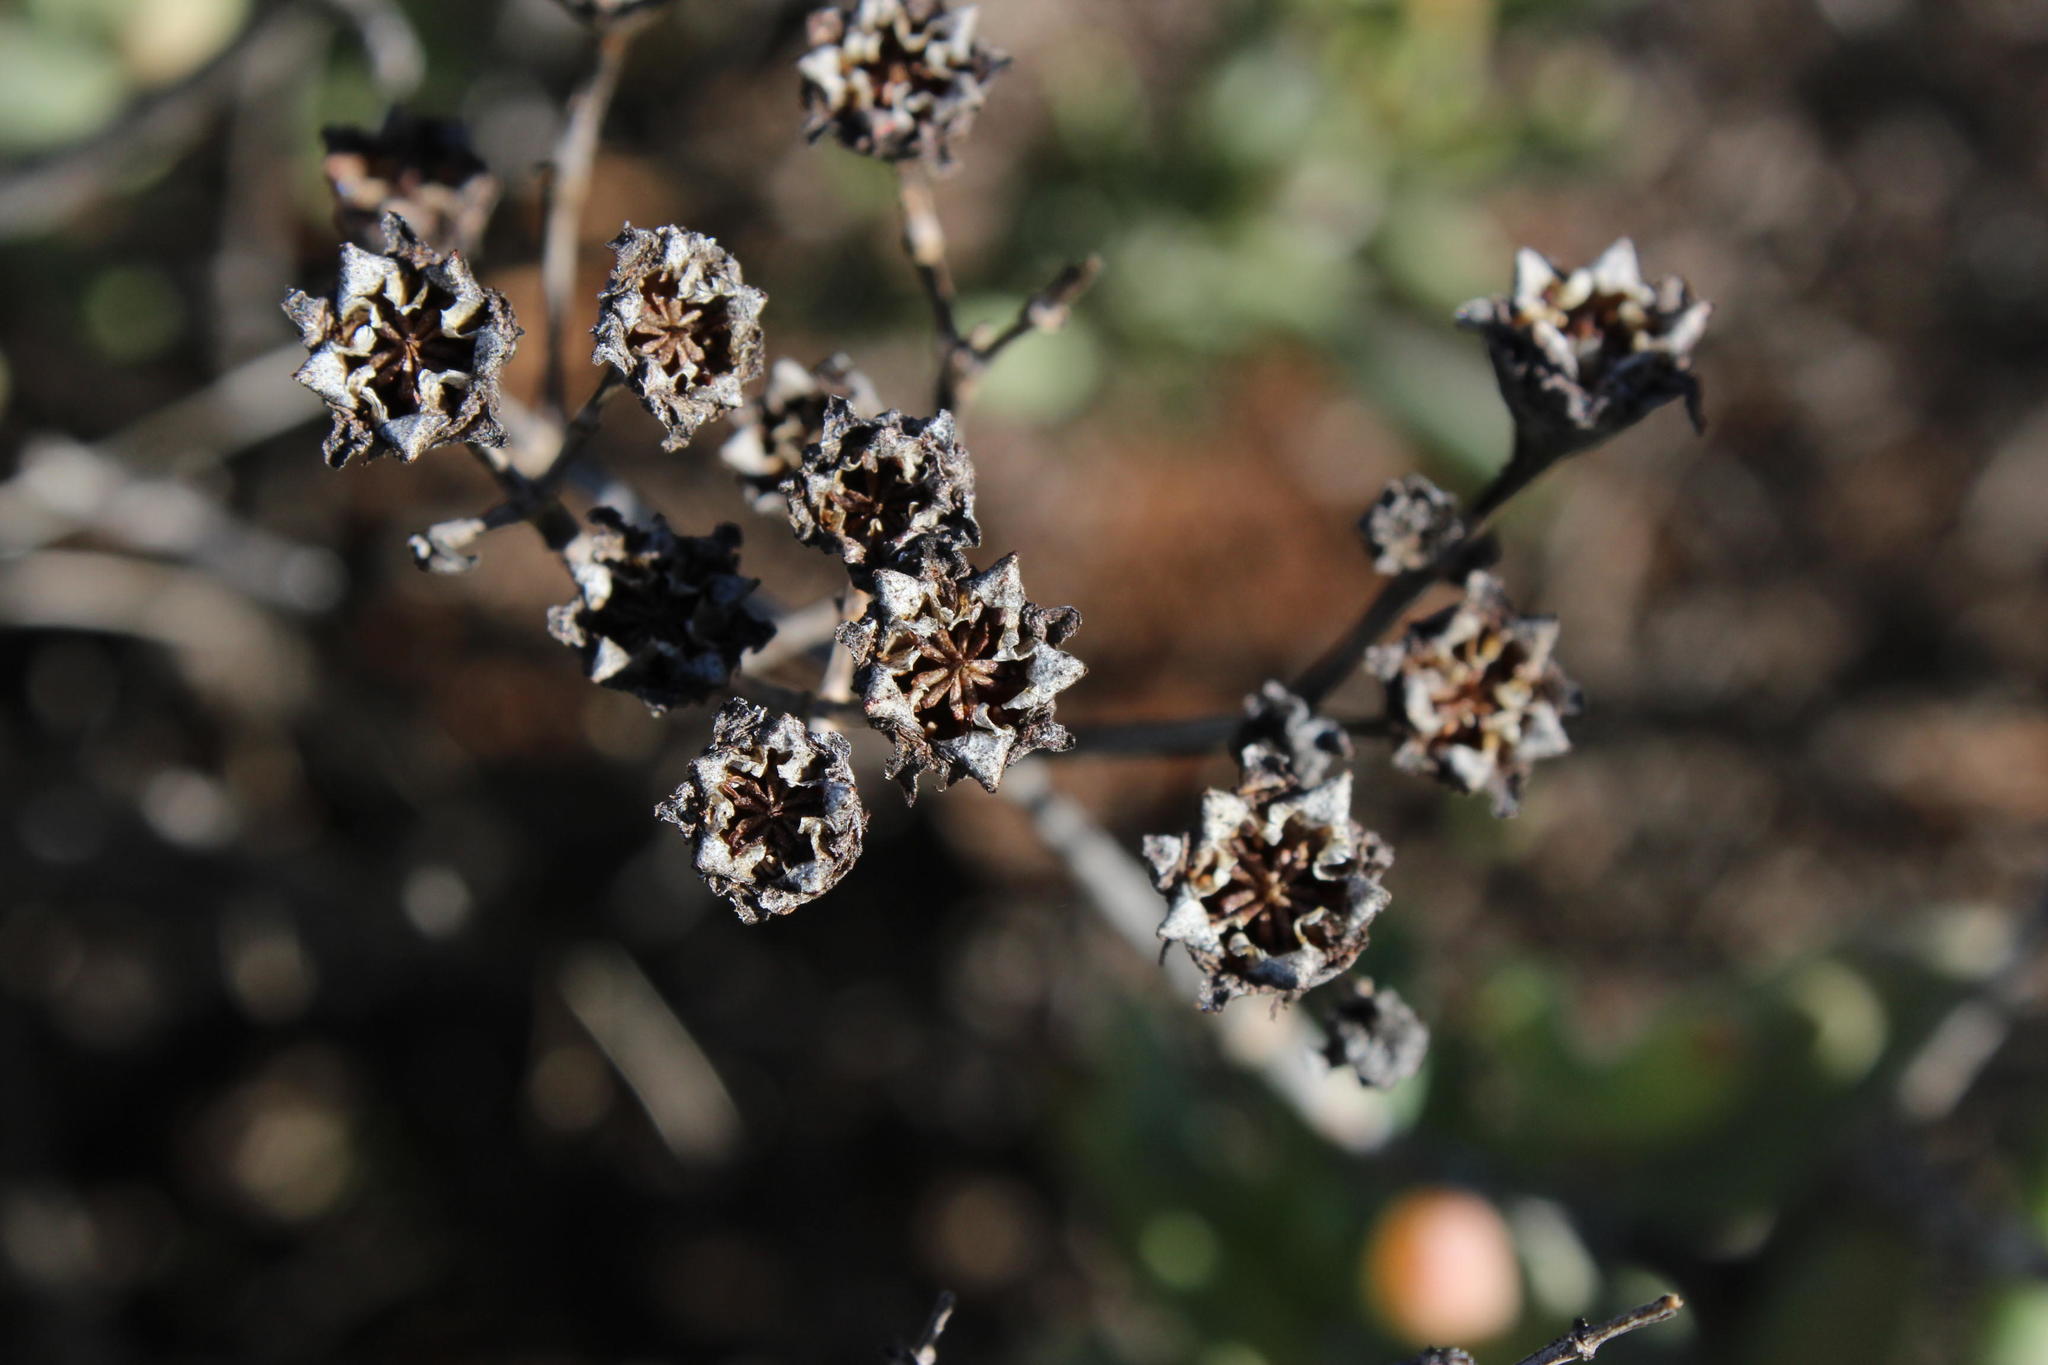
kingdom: Plantae
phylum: Tracheophyta
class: Magnoliopsida
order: Caryophyllales
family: Aizoaceae
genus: Stoeberia
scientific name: Stoeberia frutescens
